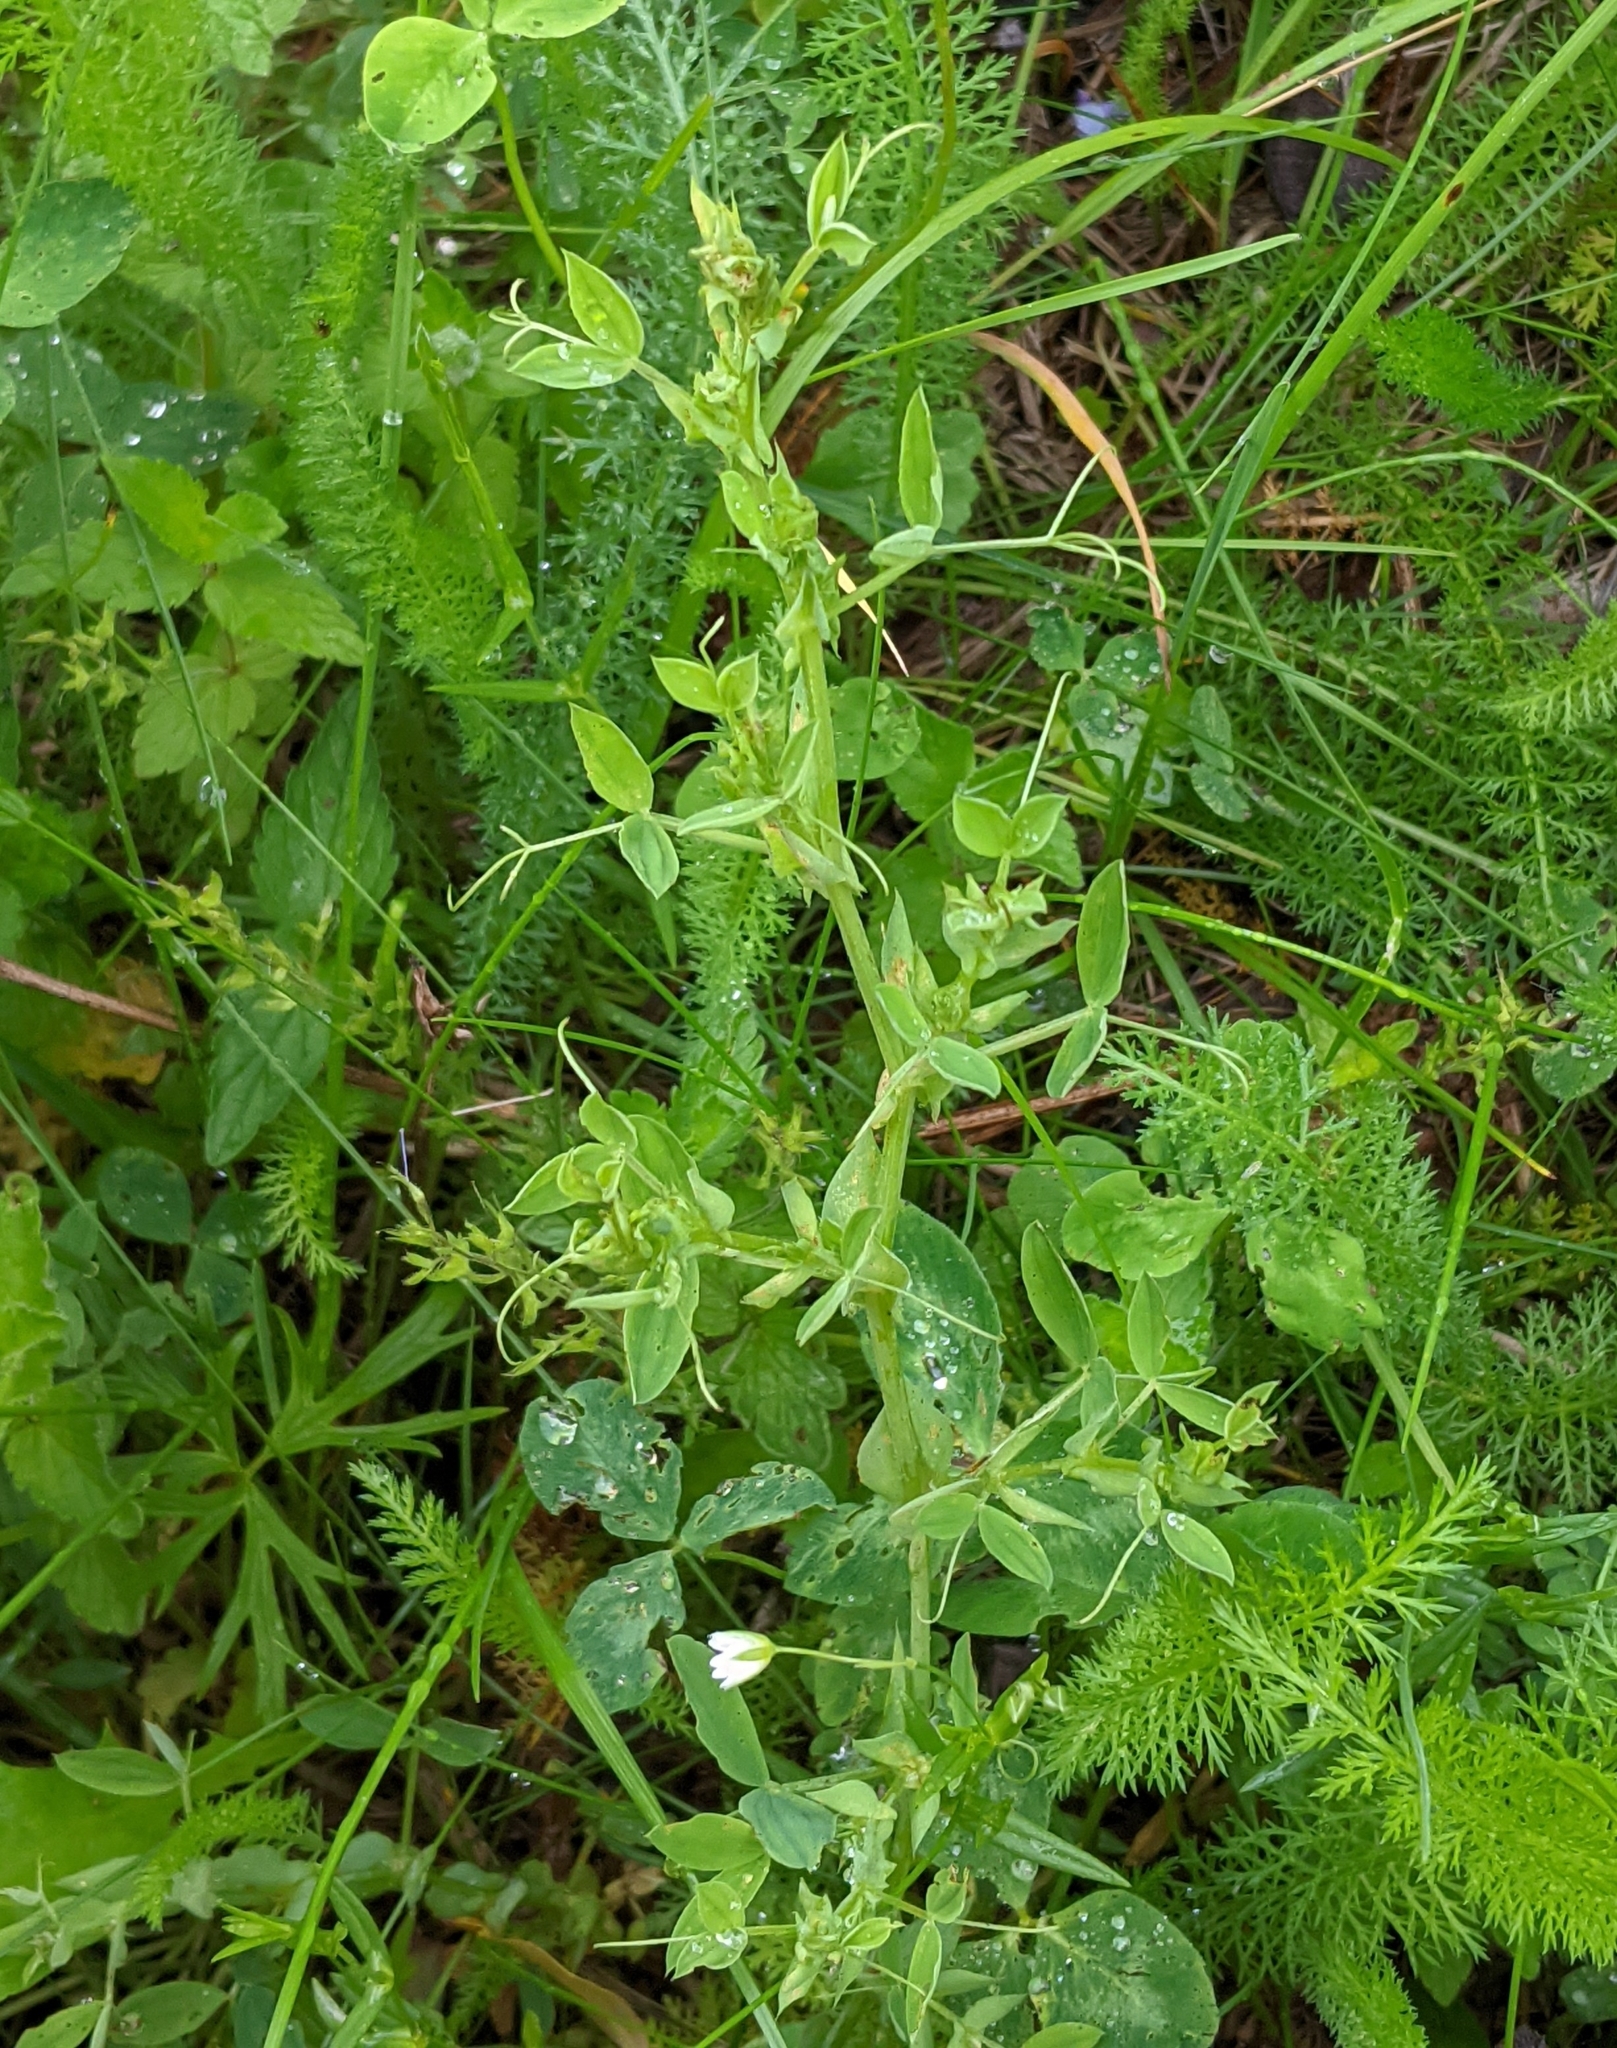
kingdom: Plantae
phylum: Tracheophyta
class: Magnoliopsida
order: Fabales
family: Fabaceae
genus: Lathyrus
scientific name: Lathyrus pratensis
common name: Meadow vetchling
